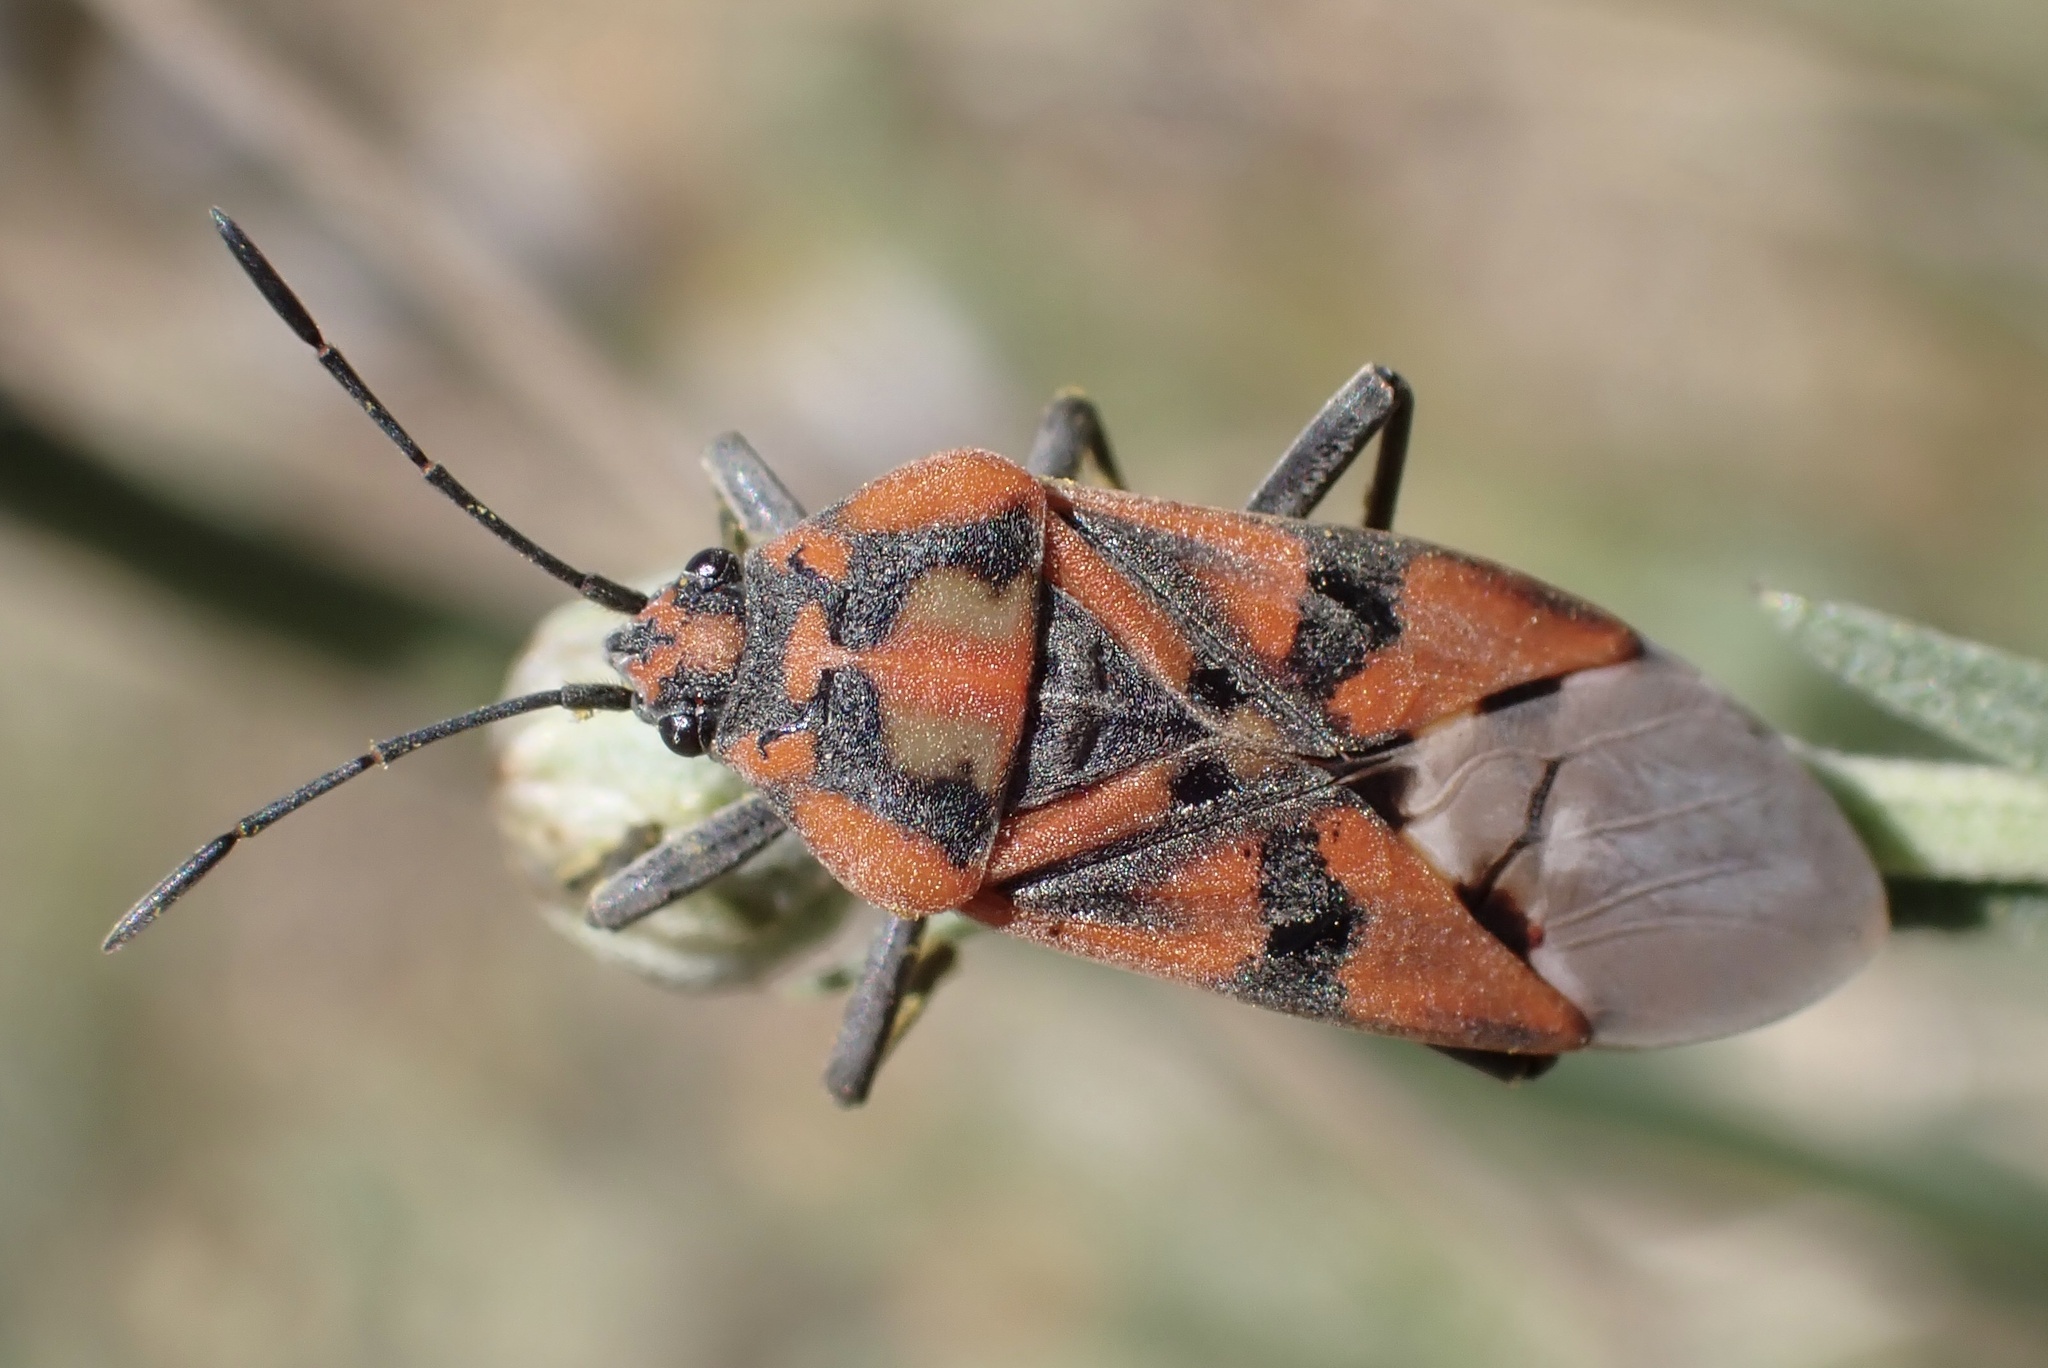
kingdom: Animalia
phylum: Arthropoda
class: Insecta
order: Hemiptera
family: Lygaeidae
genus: Spilostethus
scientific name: Spilostethus pandurus
